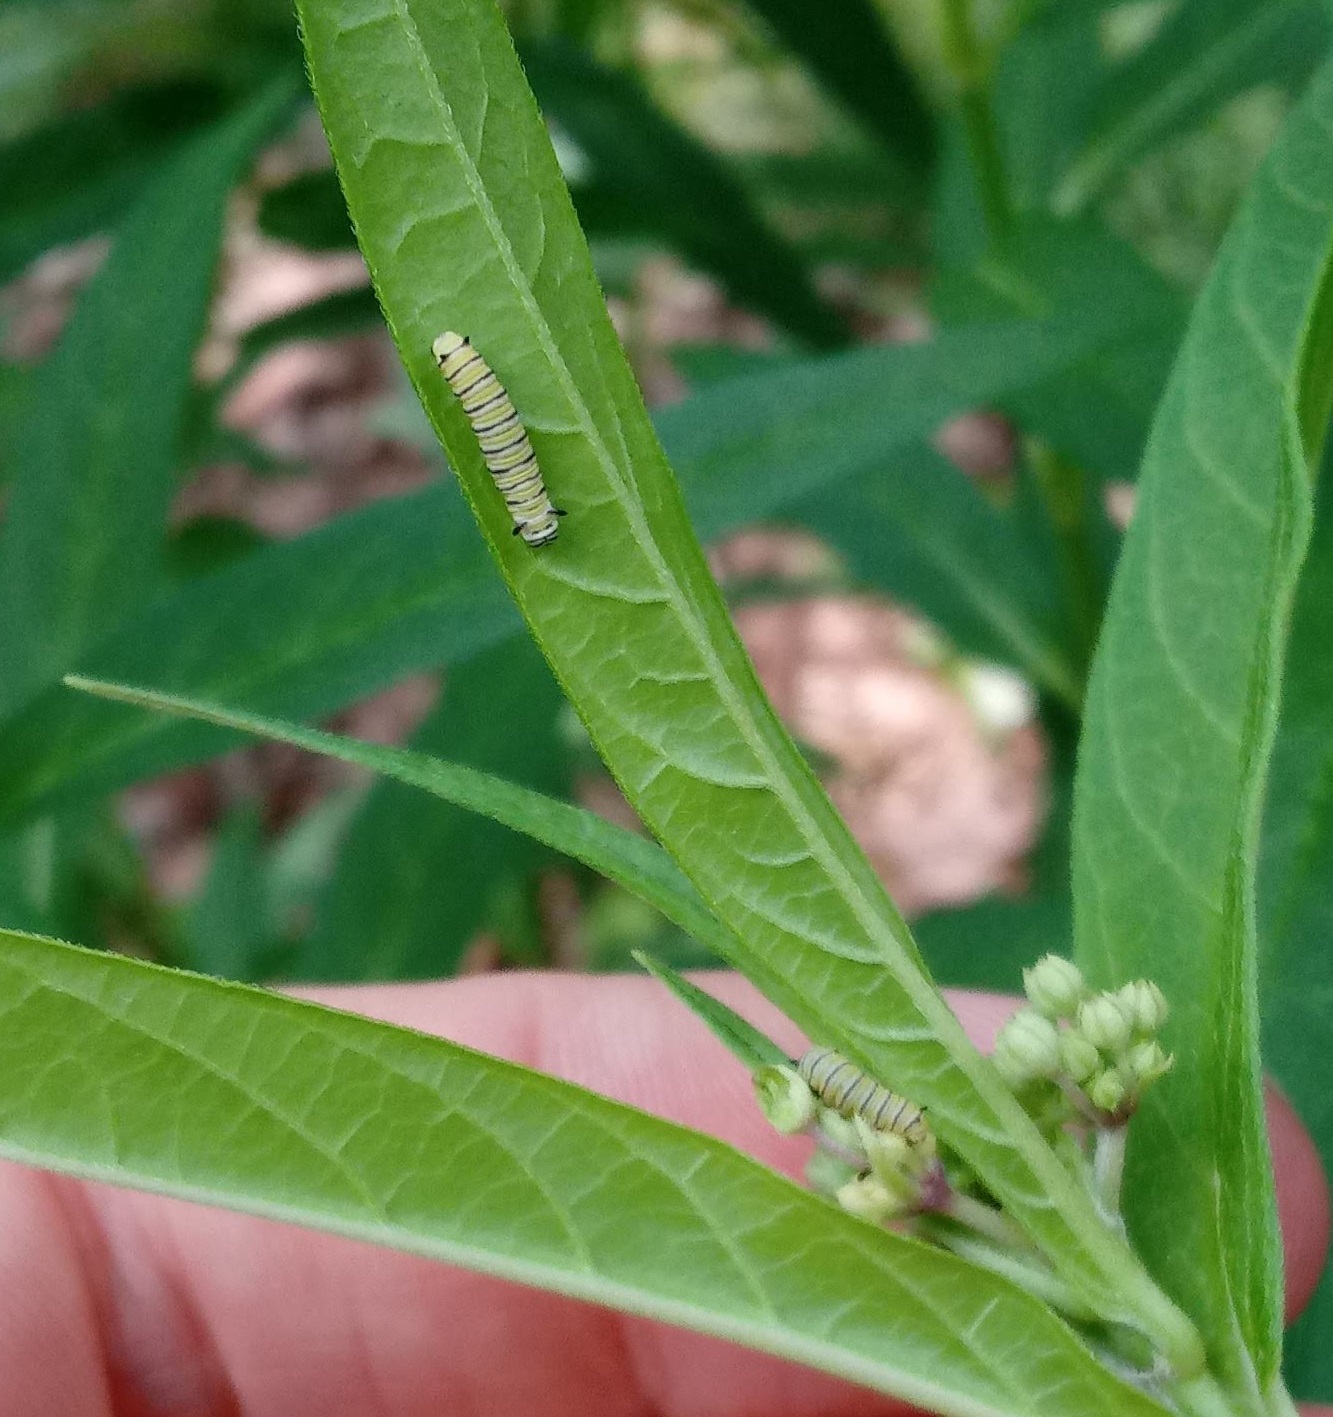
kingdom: Animalia
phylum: Arthropoda
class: Insecta
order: Lepidoptera
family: Nymphalidae
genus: Danaus
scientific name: Danaus plexippus
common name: Monarch
